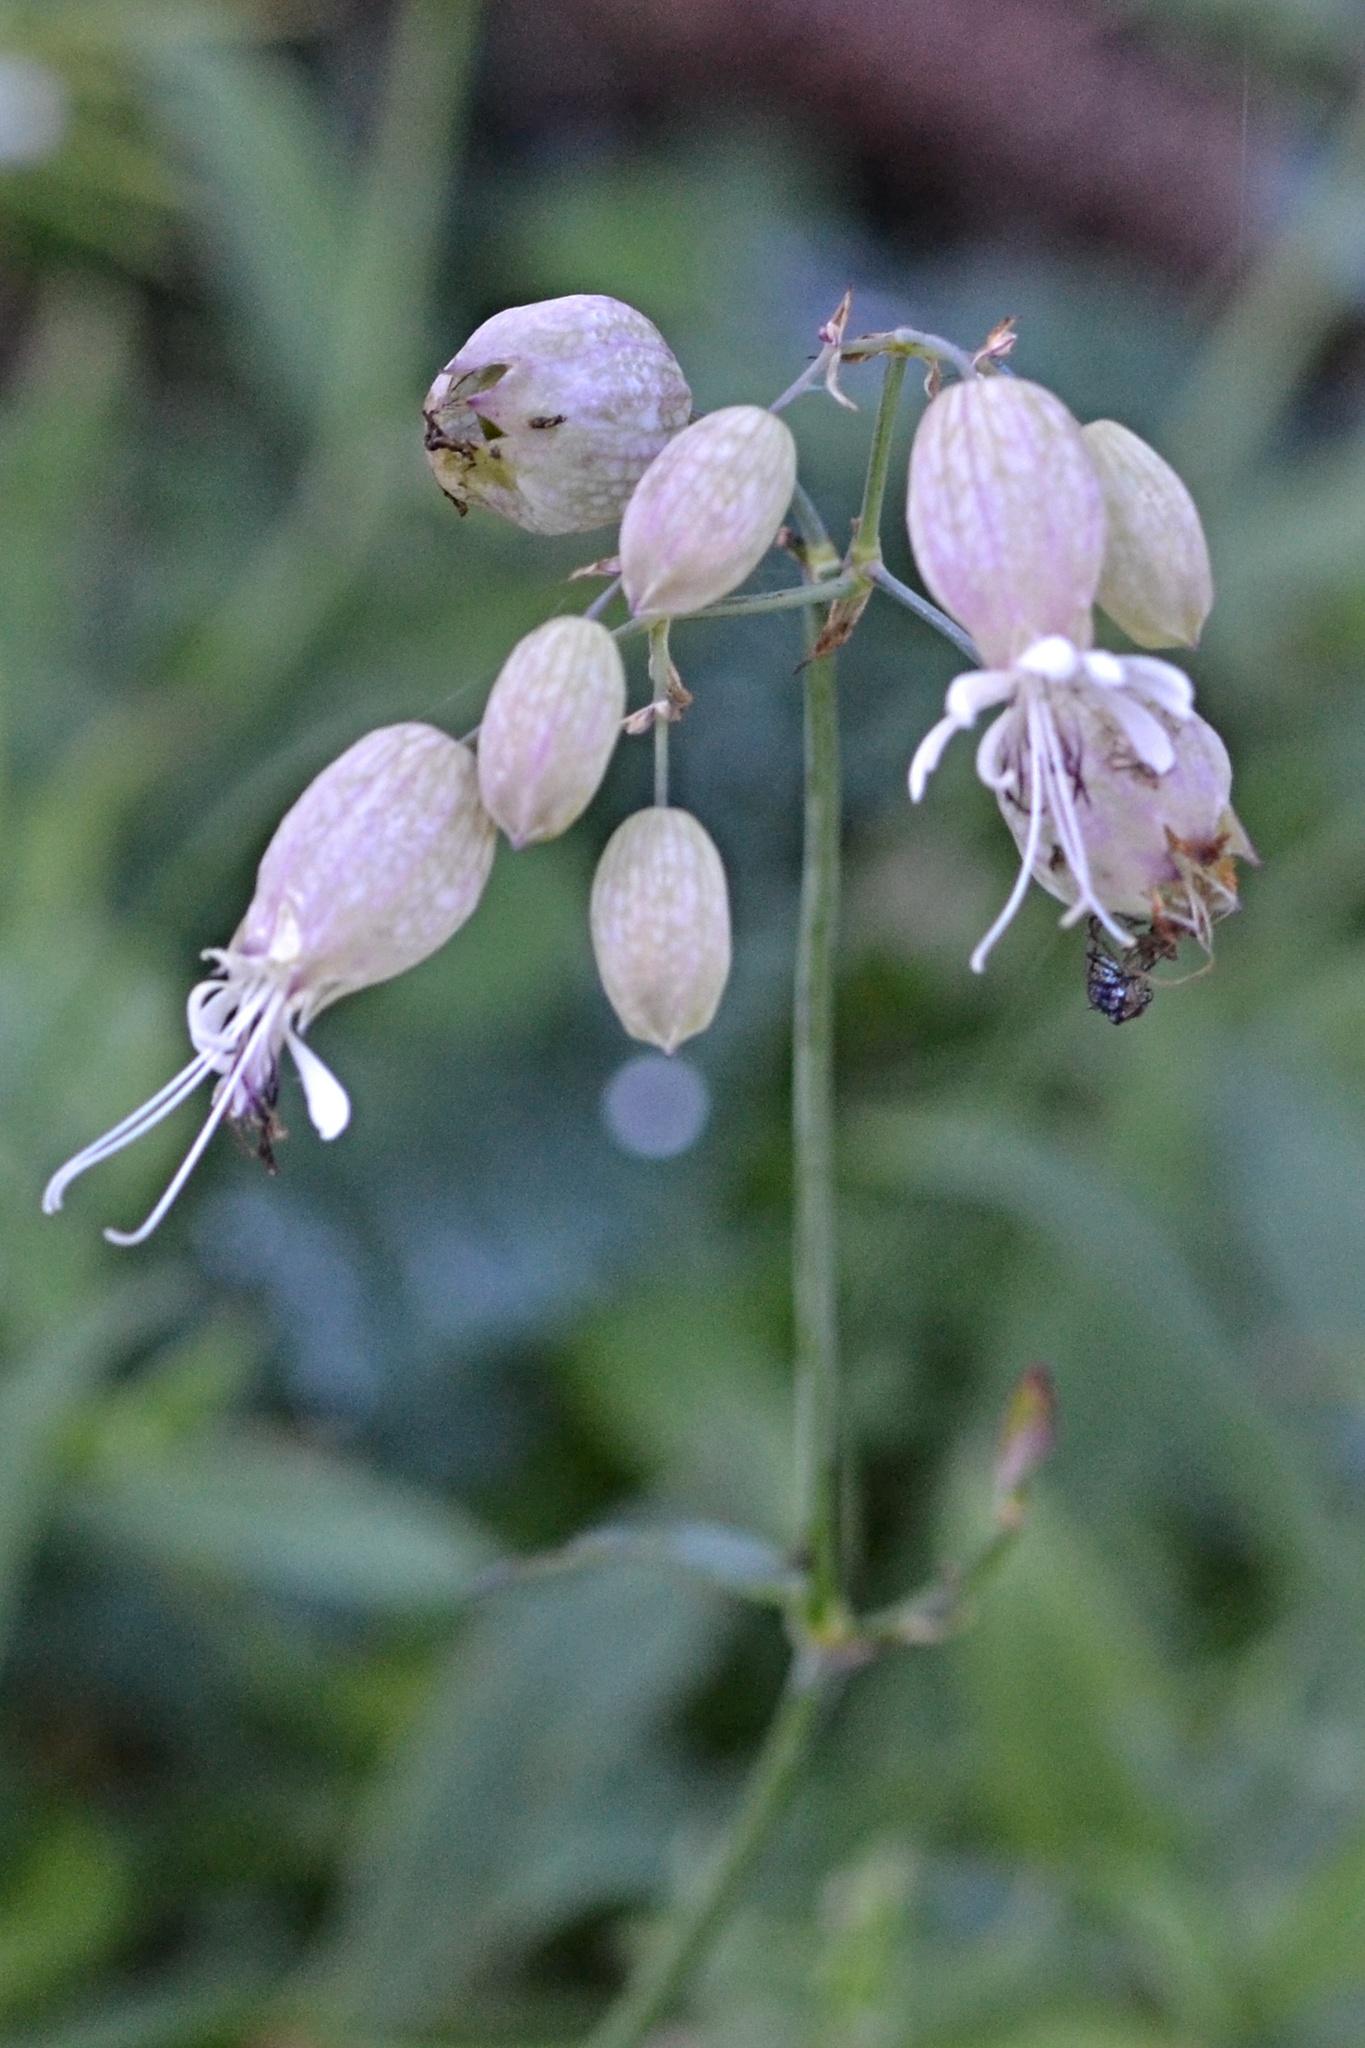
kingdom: Plantae
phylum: Tracheophyta
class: Magnoliopsida
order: Caryophyllales
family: Caryophyllaceae
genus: Silene
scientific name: Silene vulgaris
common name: Bladder campion
